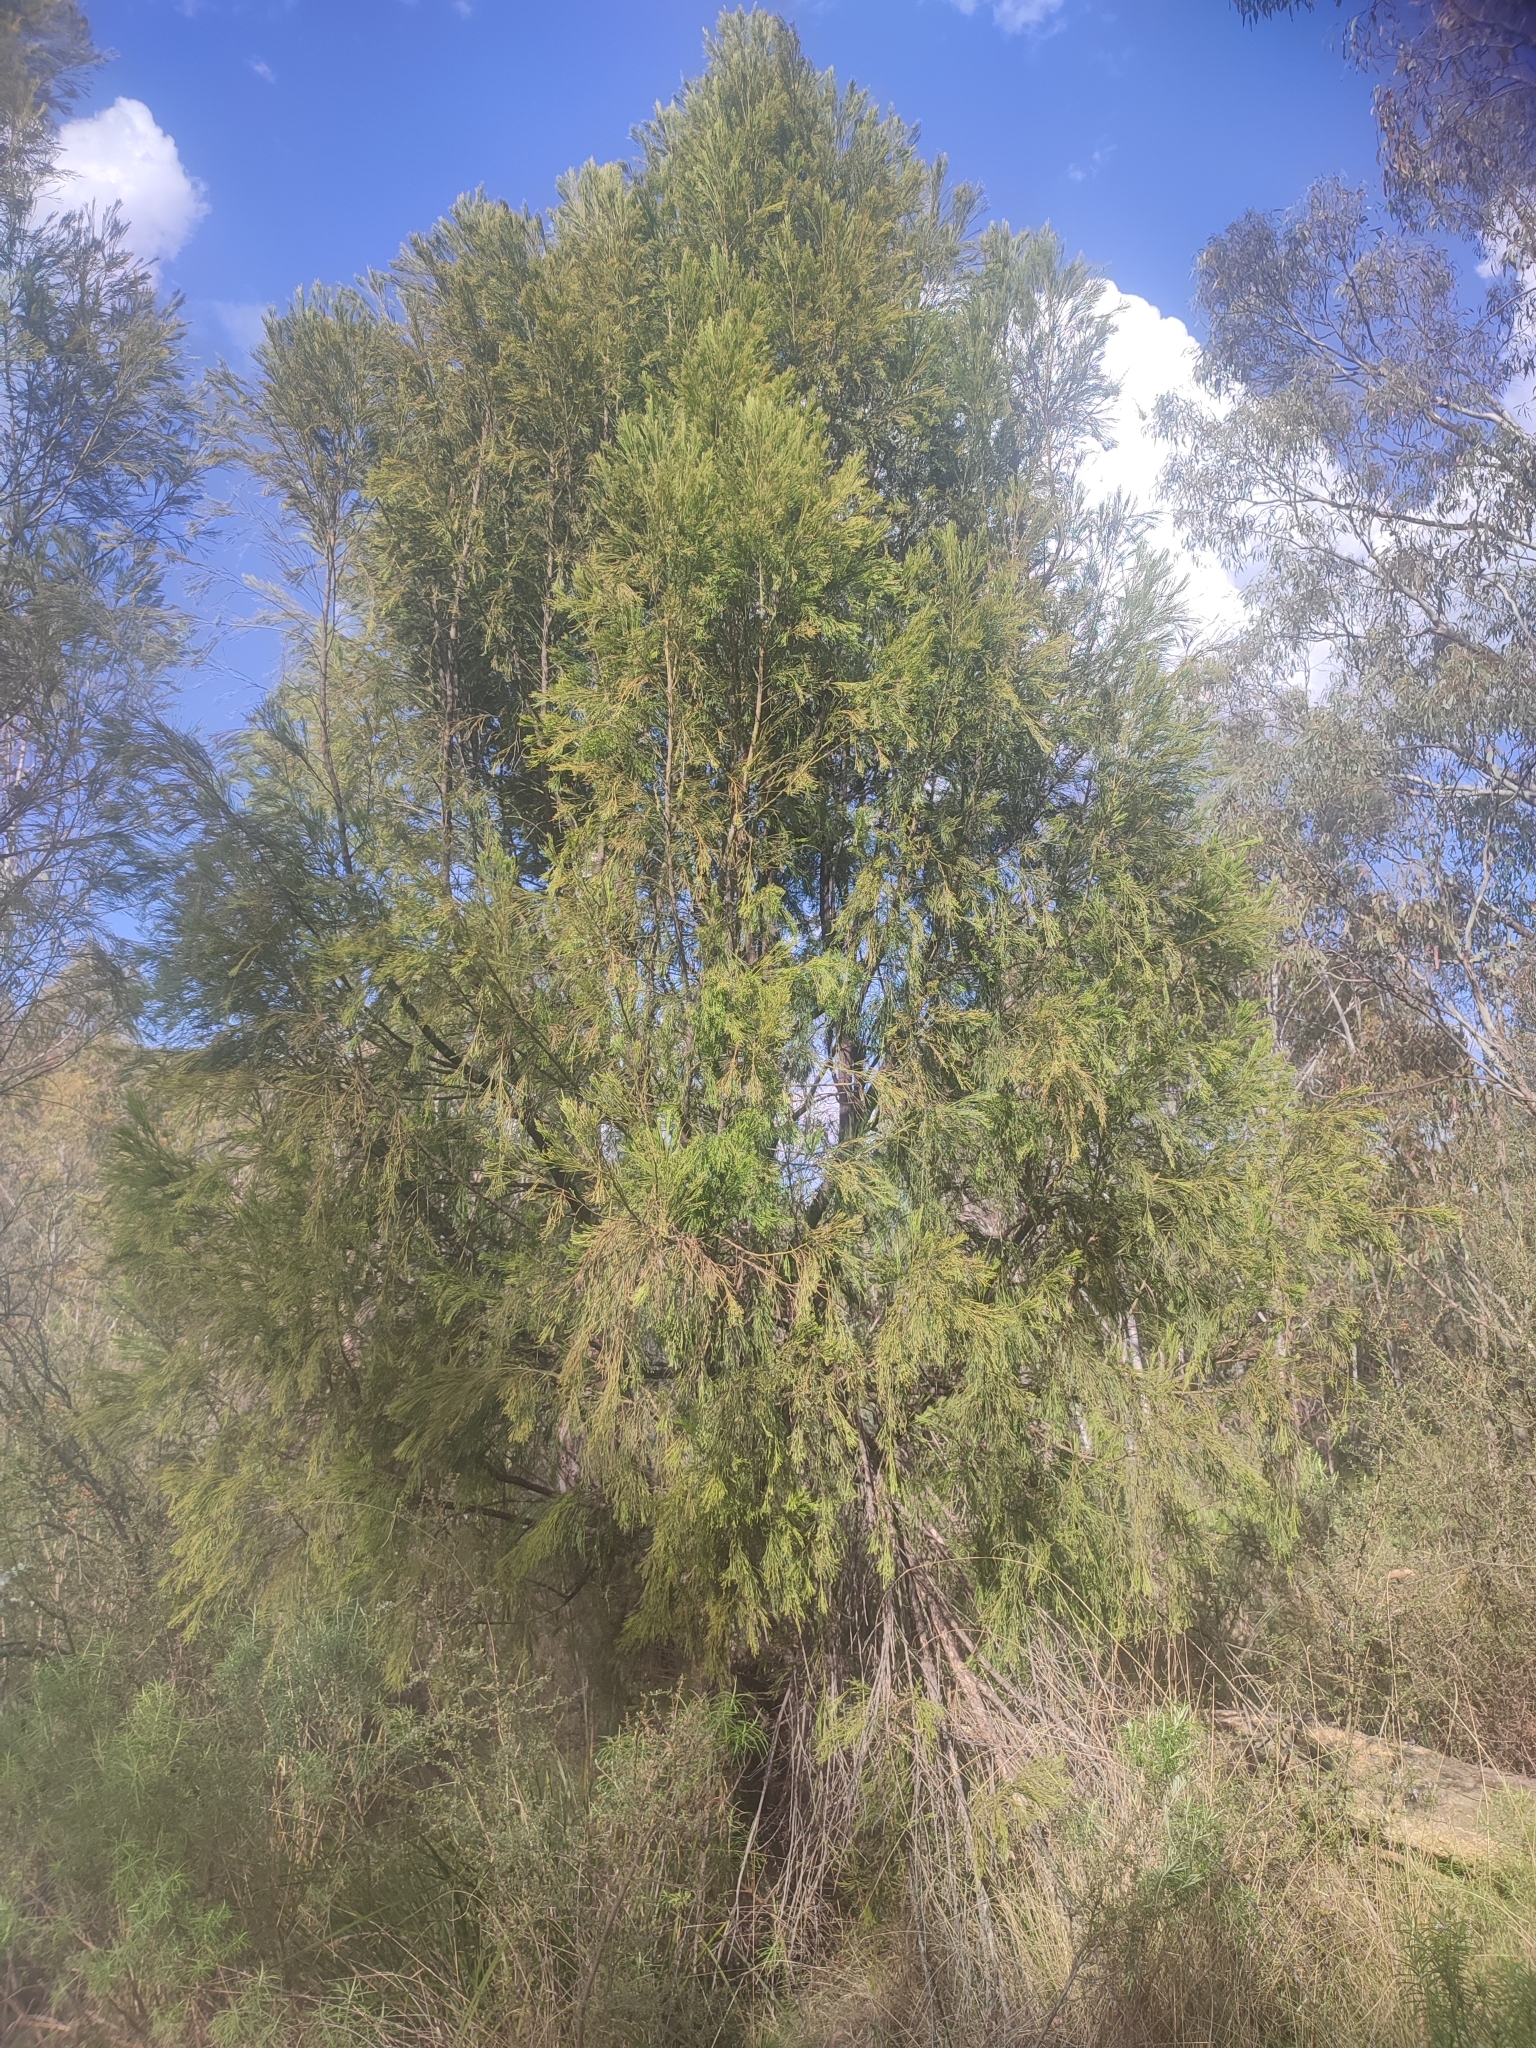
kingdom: Plantae
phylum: Tracheophyta
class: Magnoliopsida
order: Santalales
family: Santalaceae
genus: Exocarpos
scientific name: Exocarpos cupressiformis
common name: Cherry ballart
